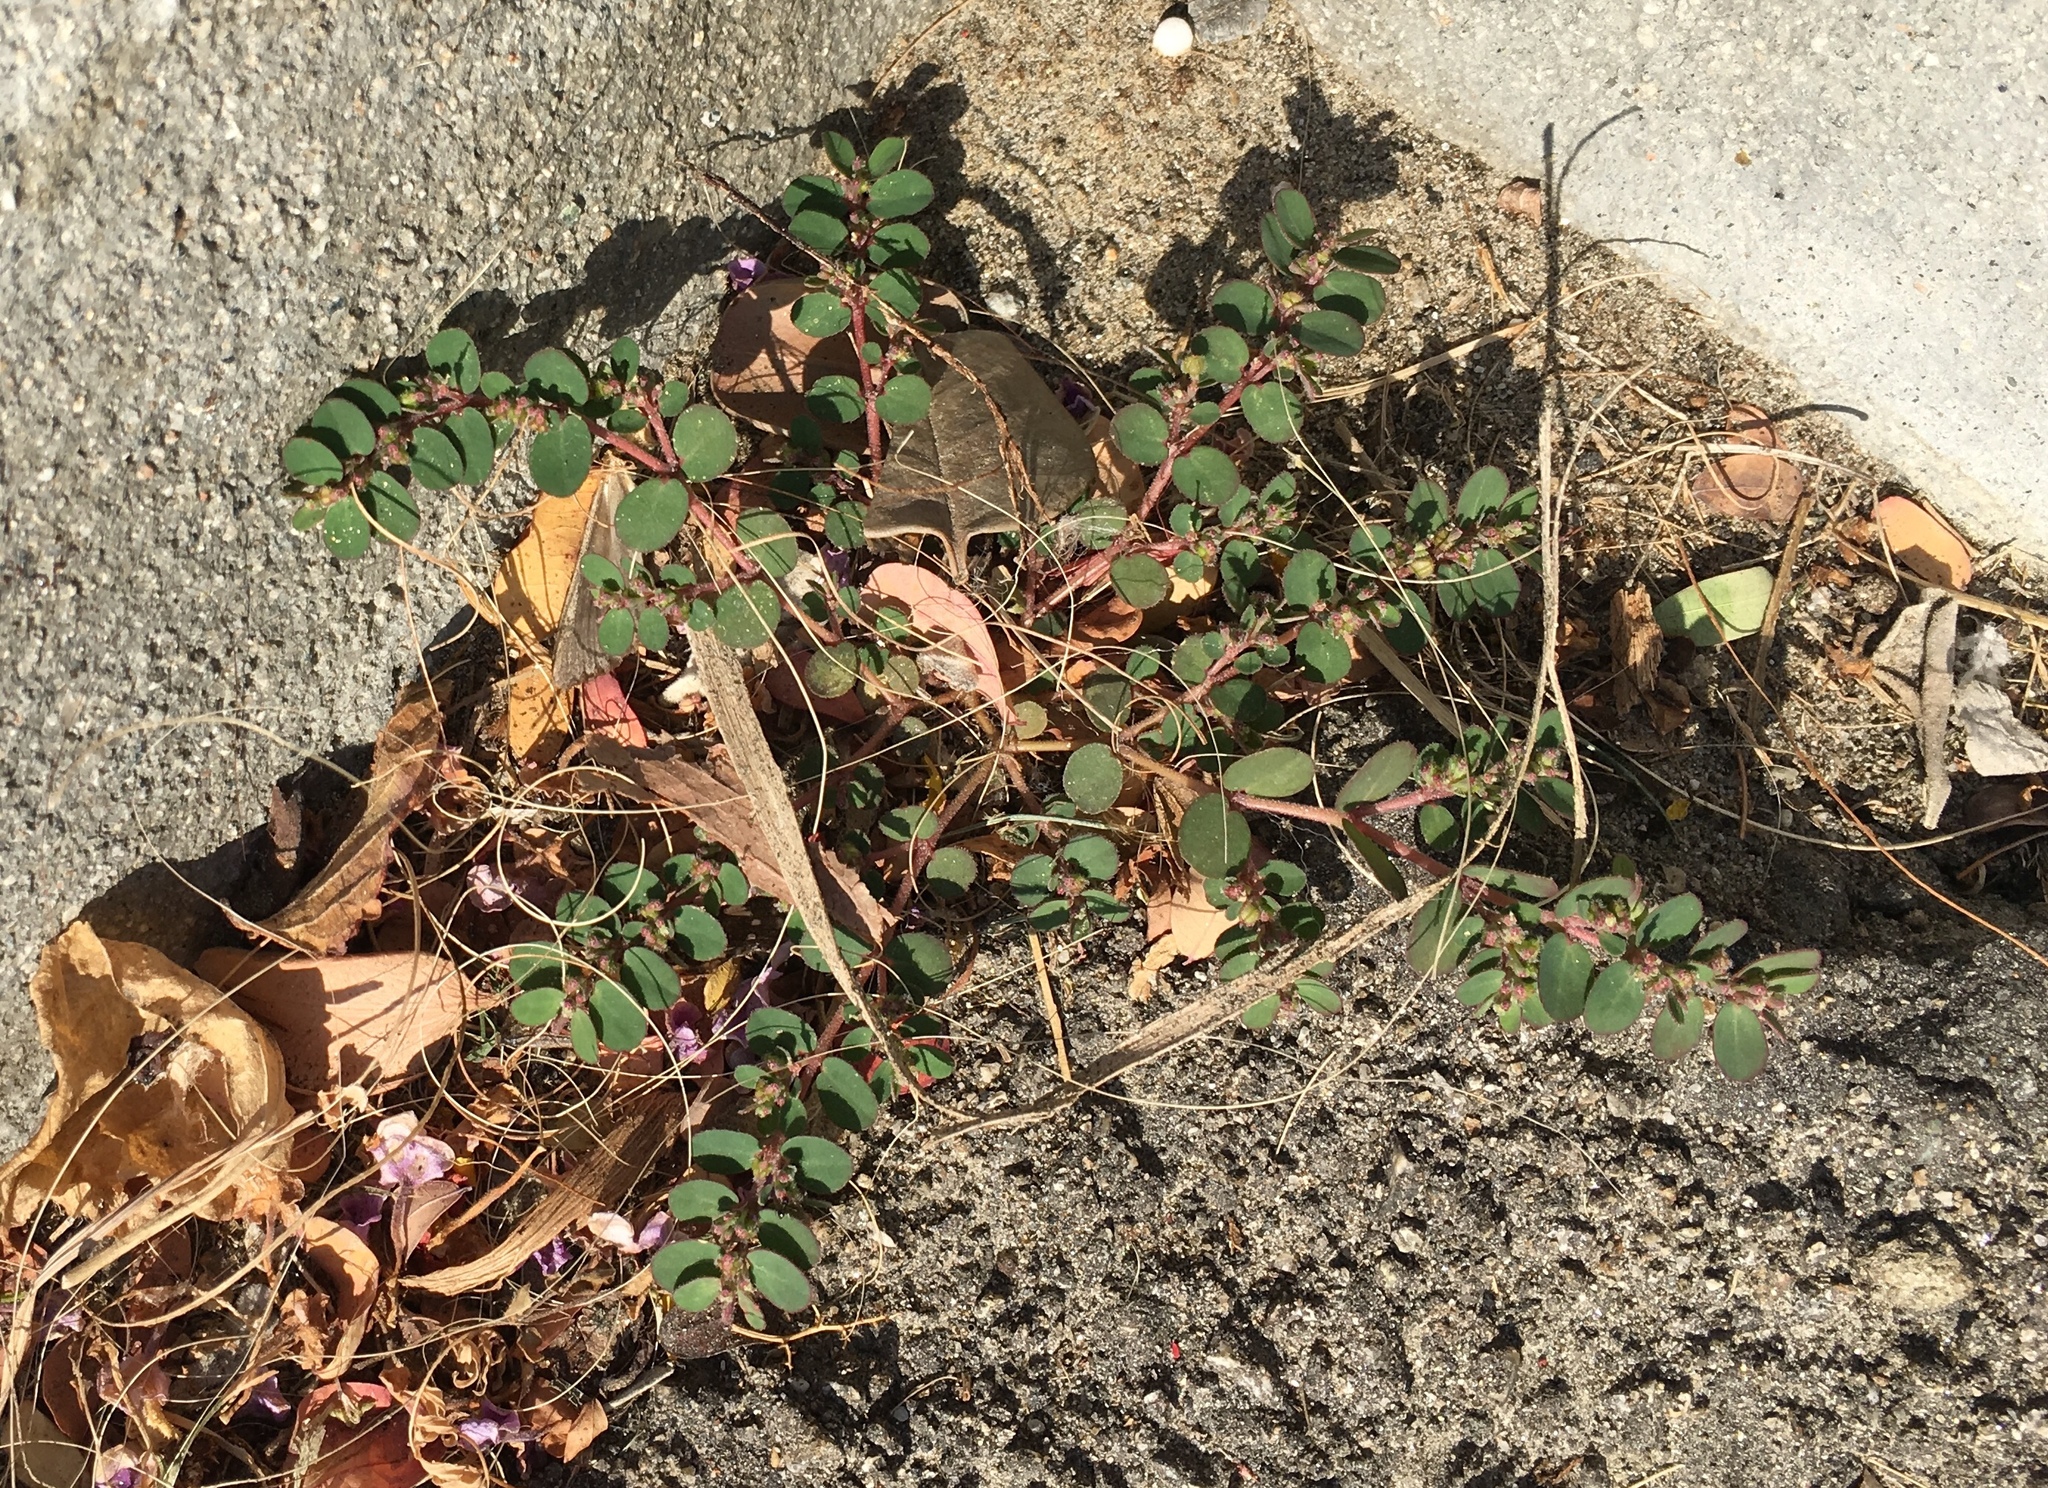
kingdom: Plantae
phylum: Tracheophyta
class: Magnoliopsida
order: Malpighiales
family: Euphorbiaceae
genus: Euphorbia
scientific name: Euphorbia prostrata
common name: Prostrate sandmat
